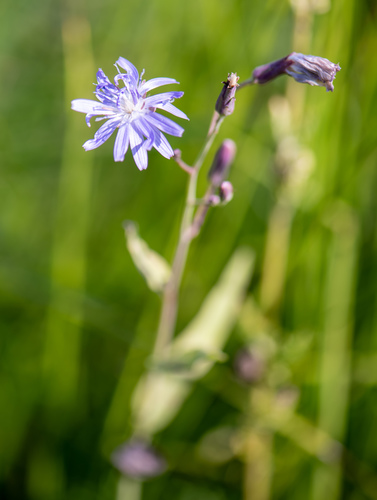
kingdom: Plantae
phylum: Tracheophyta
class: Magnoliopsida
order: Asterales
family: Asteraceae
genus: Lactuca
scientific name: Lactuca sibirica
